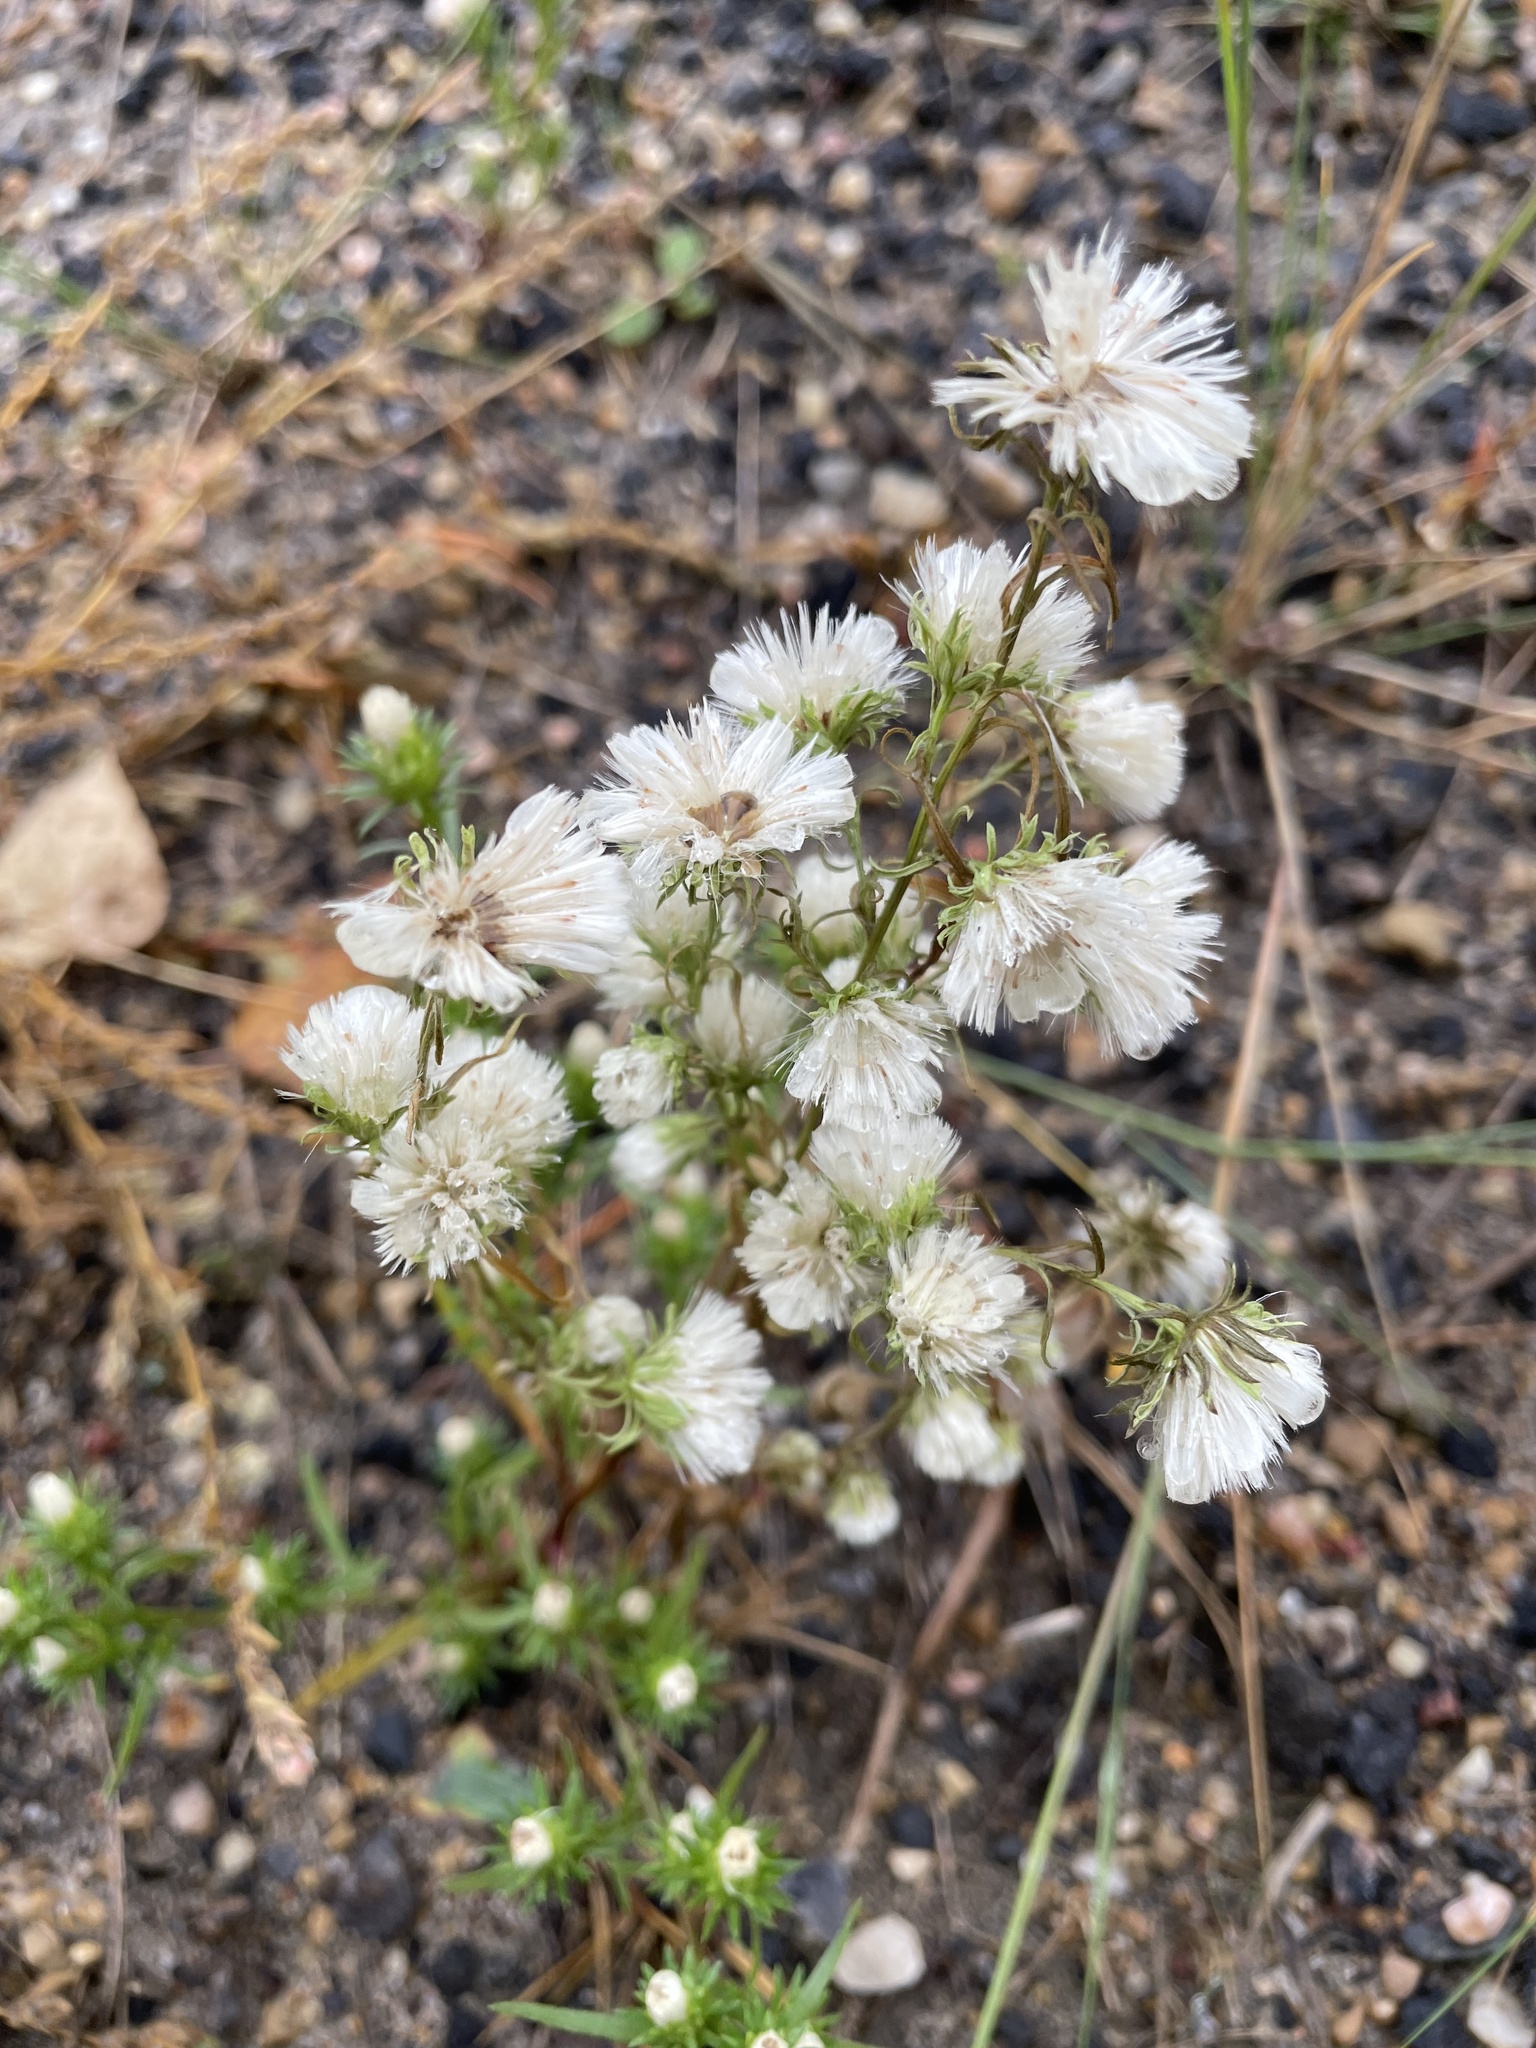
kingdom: Plantae
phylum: Tracheophyta
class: Magnoliopsida
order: Asterales
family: Asteraceae
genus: Symphyotrichum
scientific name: Symphyotrichum ciliatum
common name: Rayless annual aster
